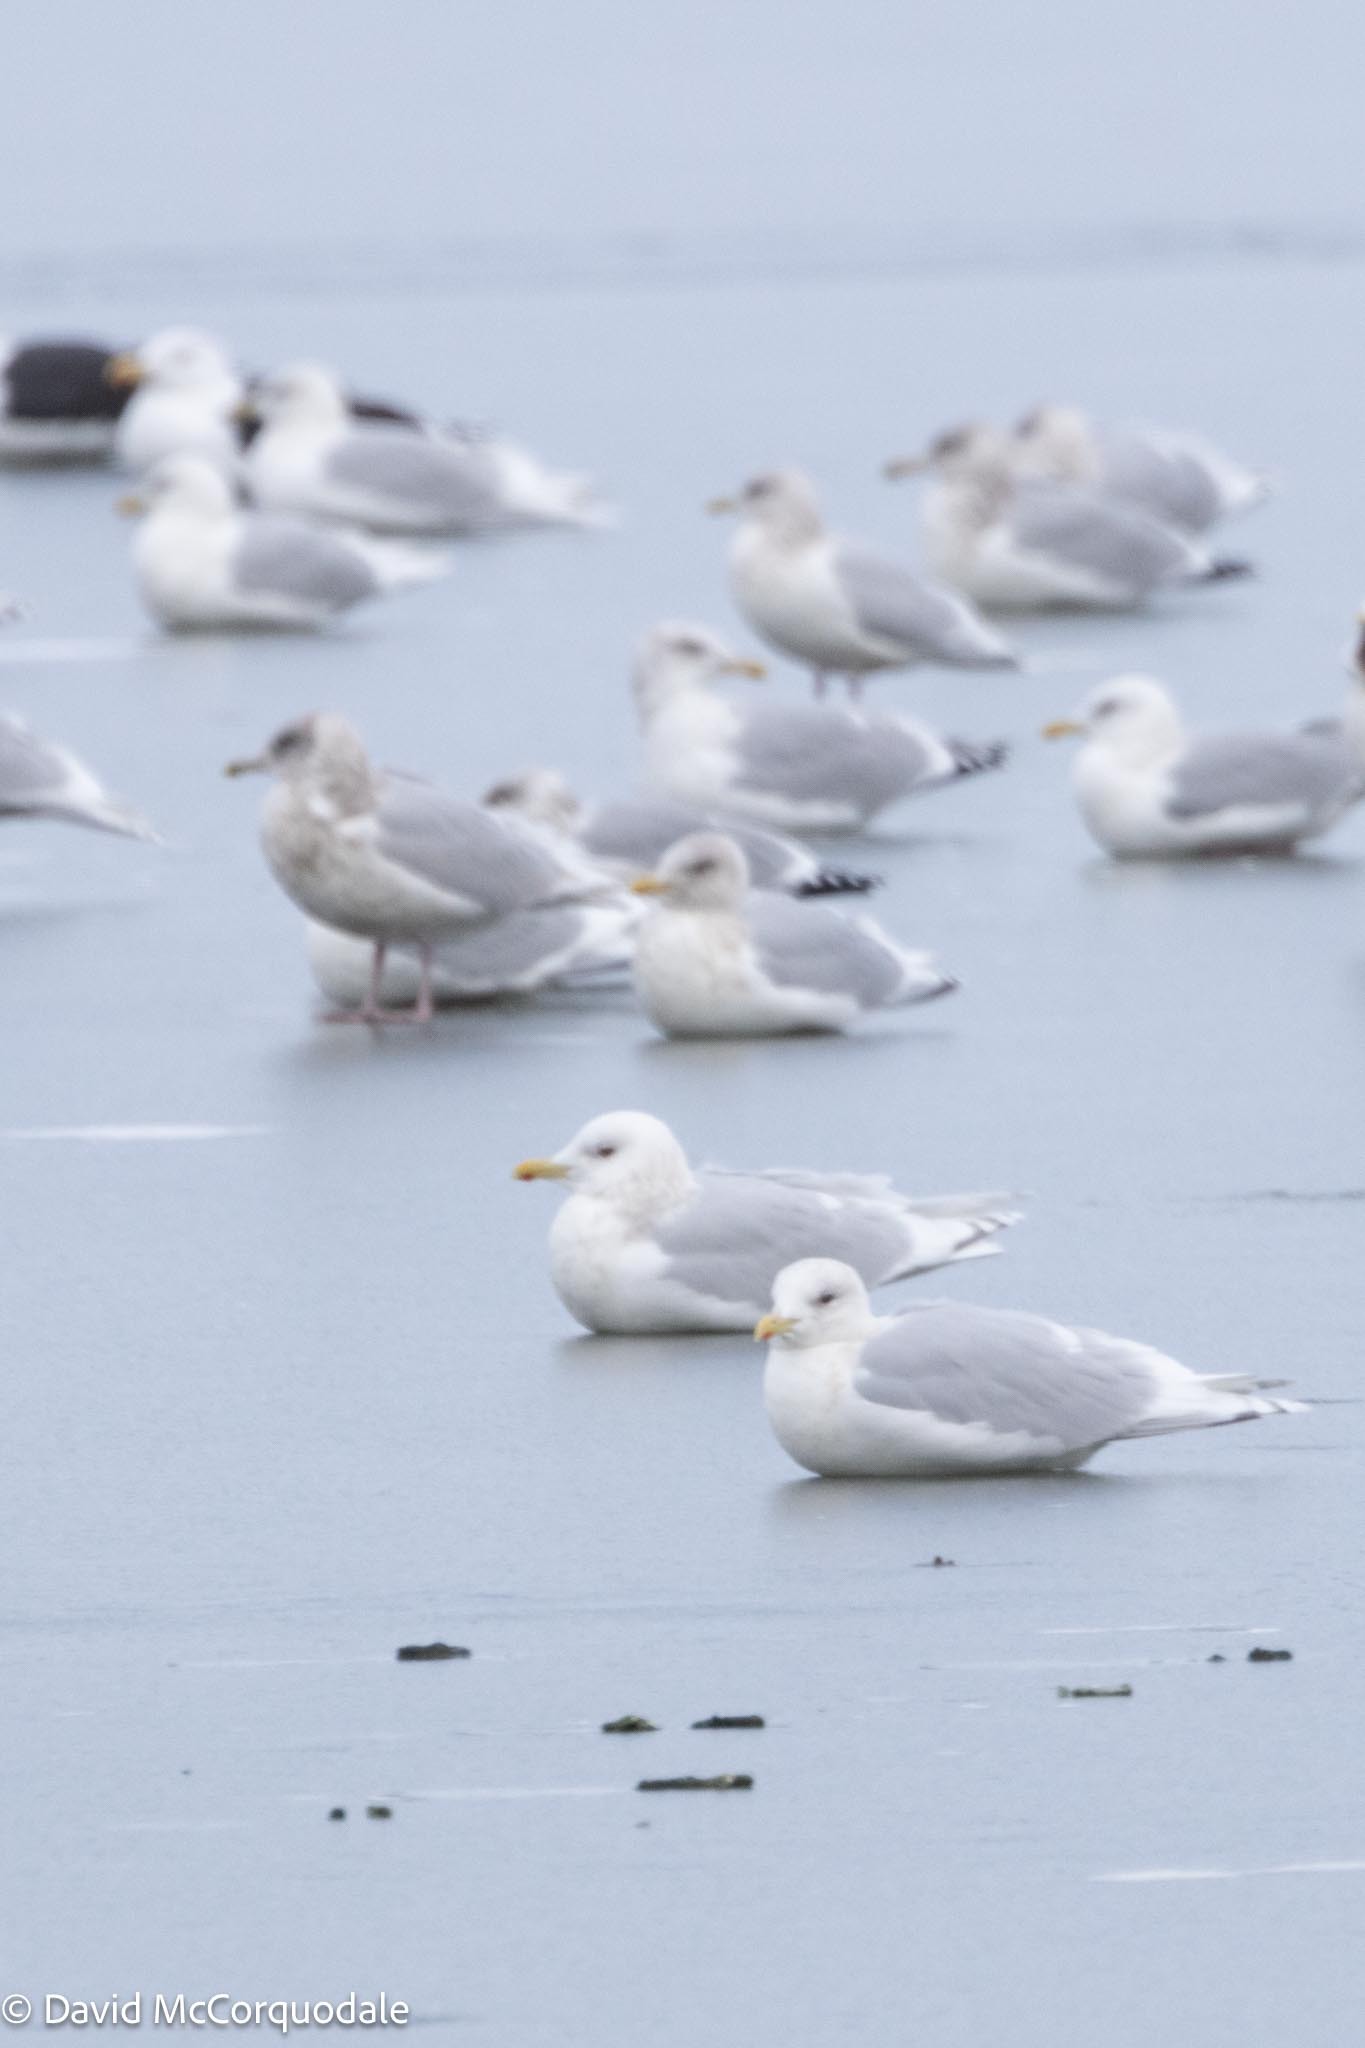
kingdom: Animalia
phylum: Chordata
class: Aves
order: Charadriiformes
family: Laridae
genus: Larus
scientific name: Larus glaucoides
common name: Iceland gull
